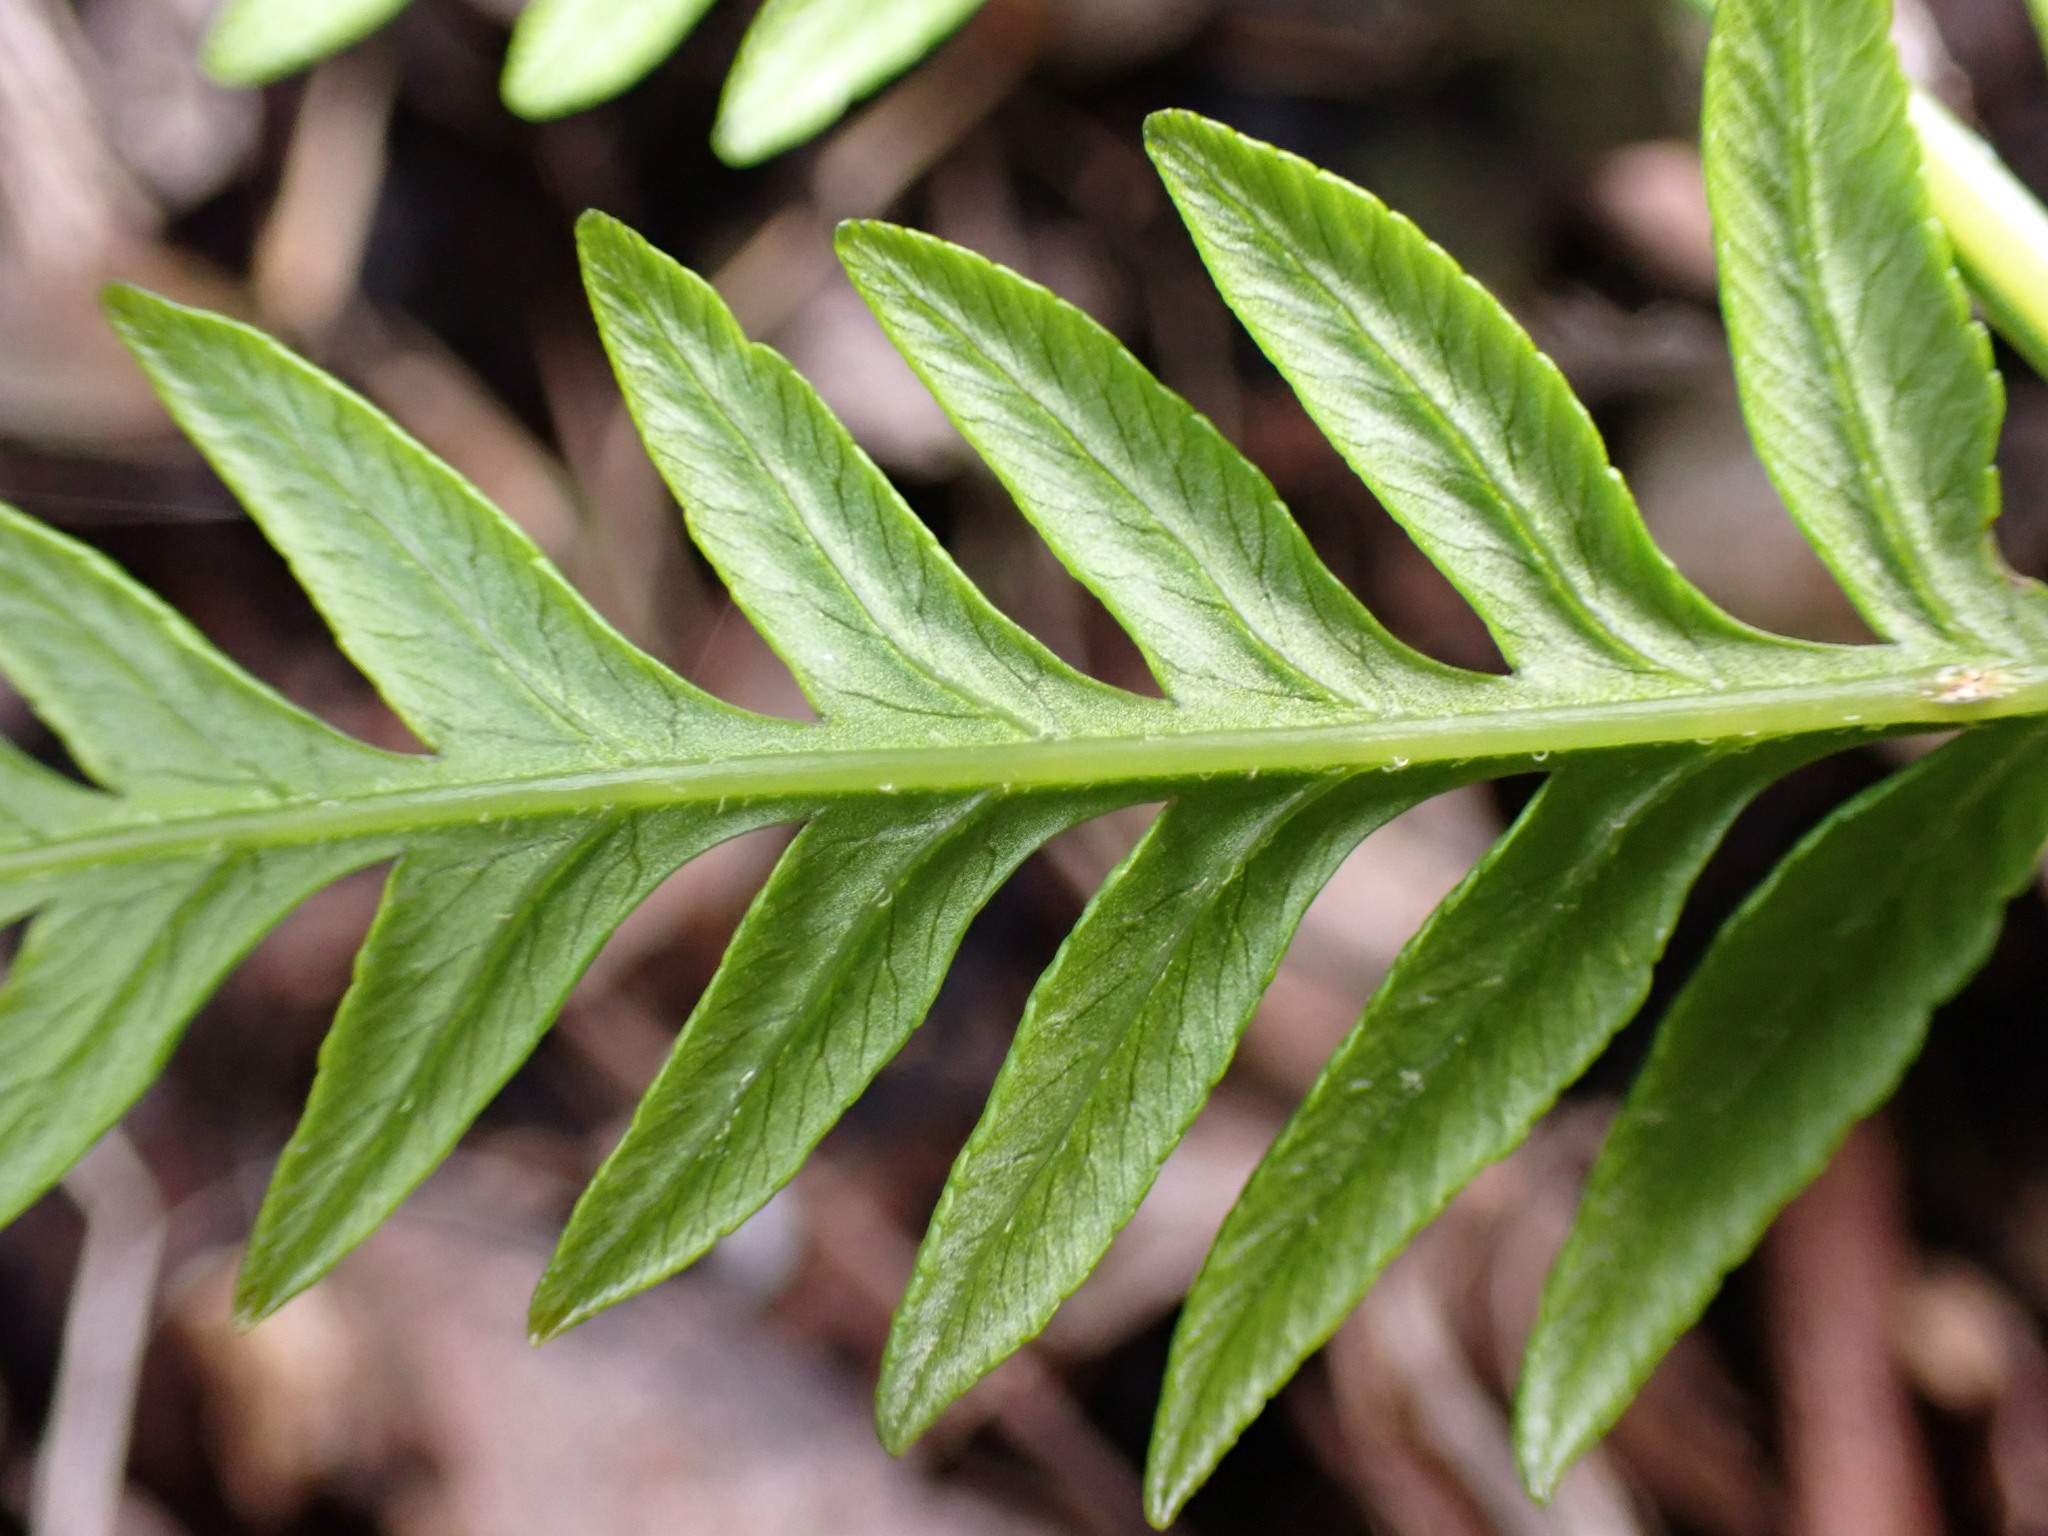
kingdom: Plantae
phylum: Tracheophyta
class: Polypodiopsida
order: Polypodiales
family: Pteridaceae
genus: Pteris
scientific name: Pteris tremula
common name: Australian brake
